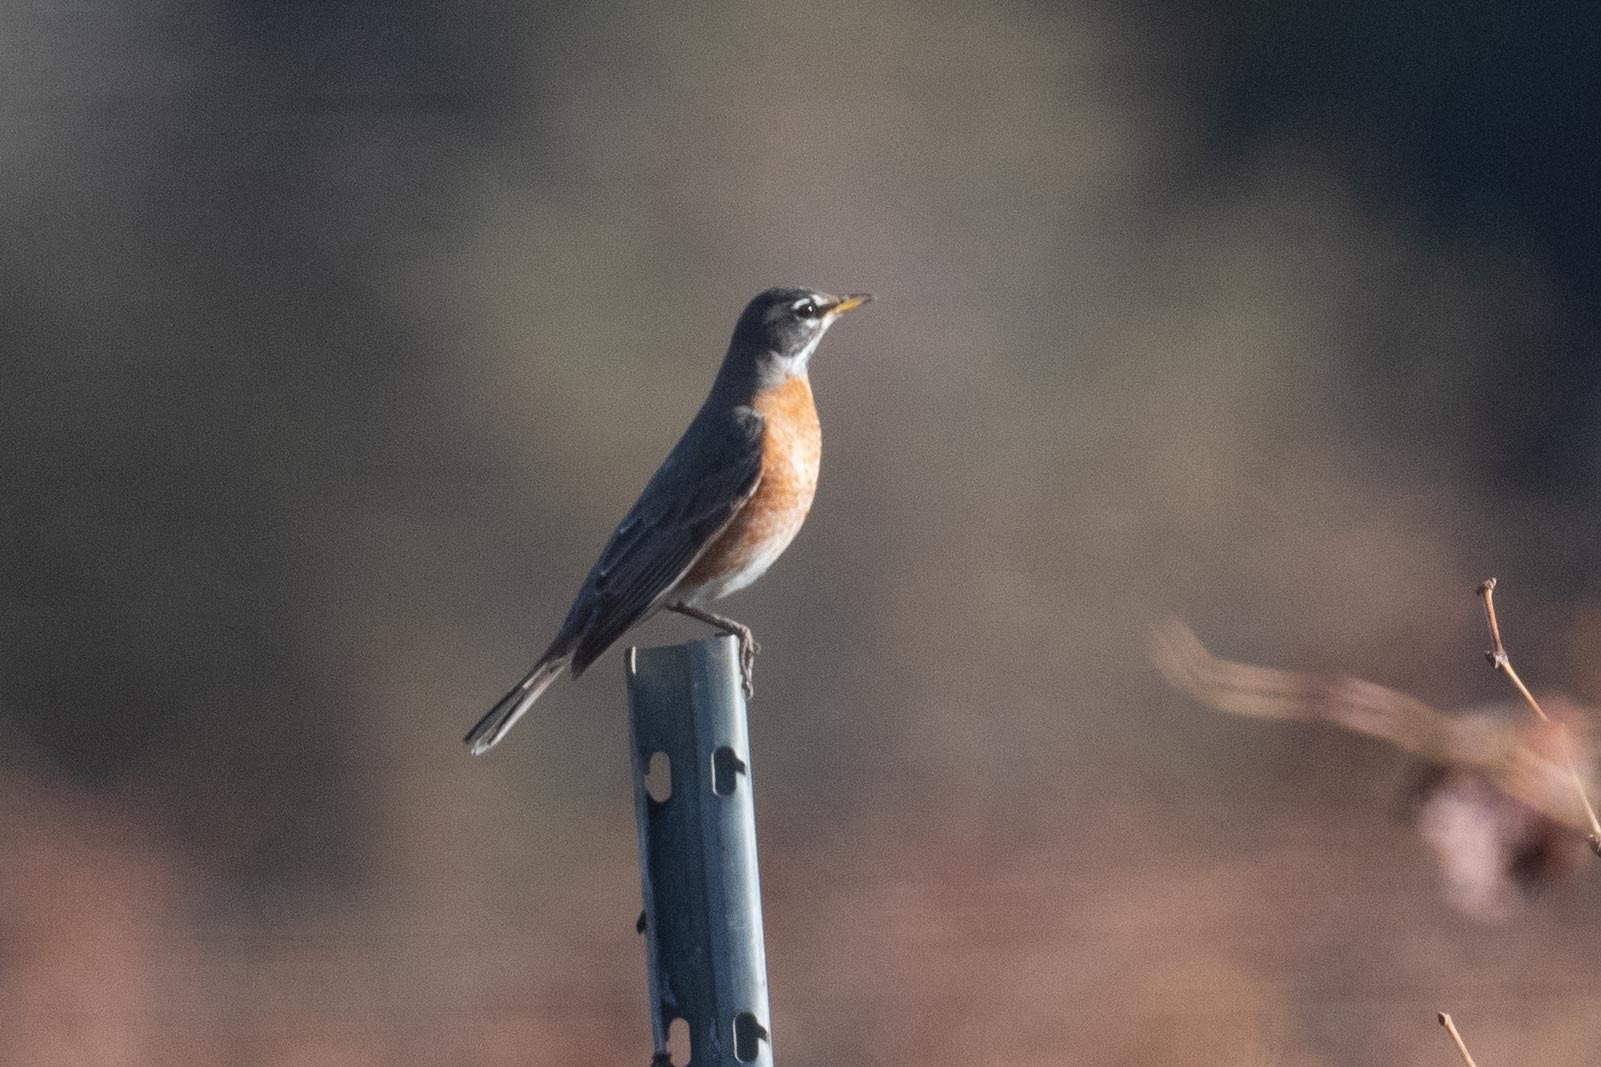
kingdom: Animalia
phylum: Chordata
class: Aves
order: Passeriformes
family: Turdidae
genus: Turdus
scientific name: Turdus migratorius
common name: American robin
